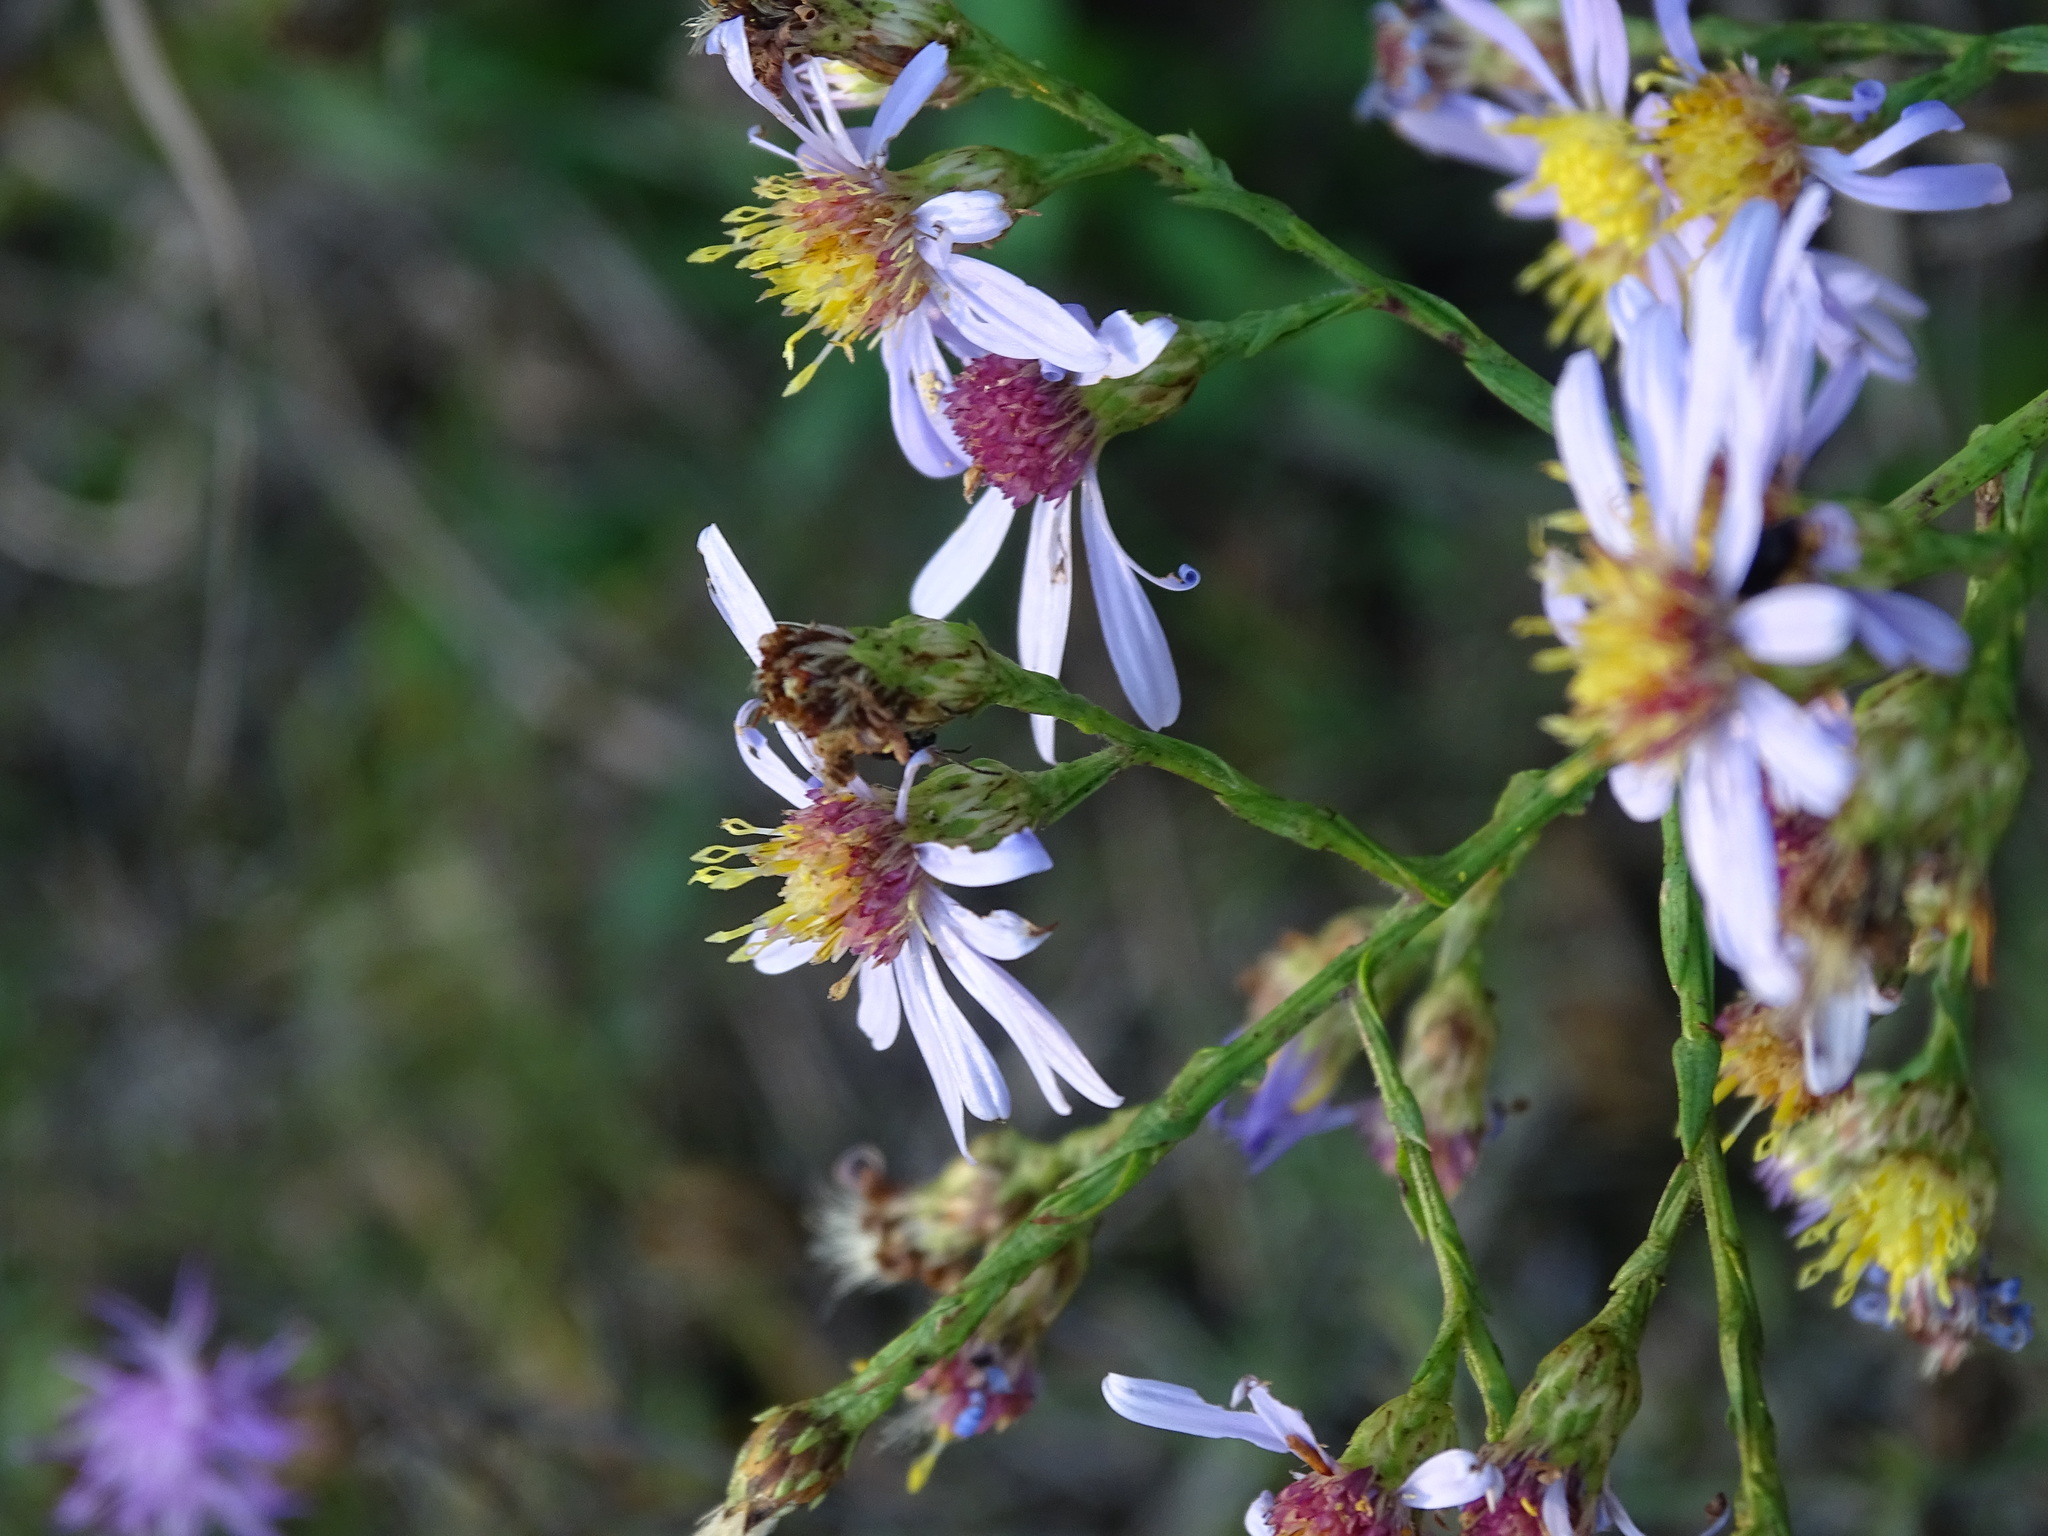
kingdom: Plantae
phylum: Tracheophyta
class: Magnoliopsida
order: Asterales
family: Asteraceae
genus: Symphyotrichum
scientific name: Symphyotrichum laeve
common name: Glaucous aster
